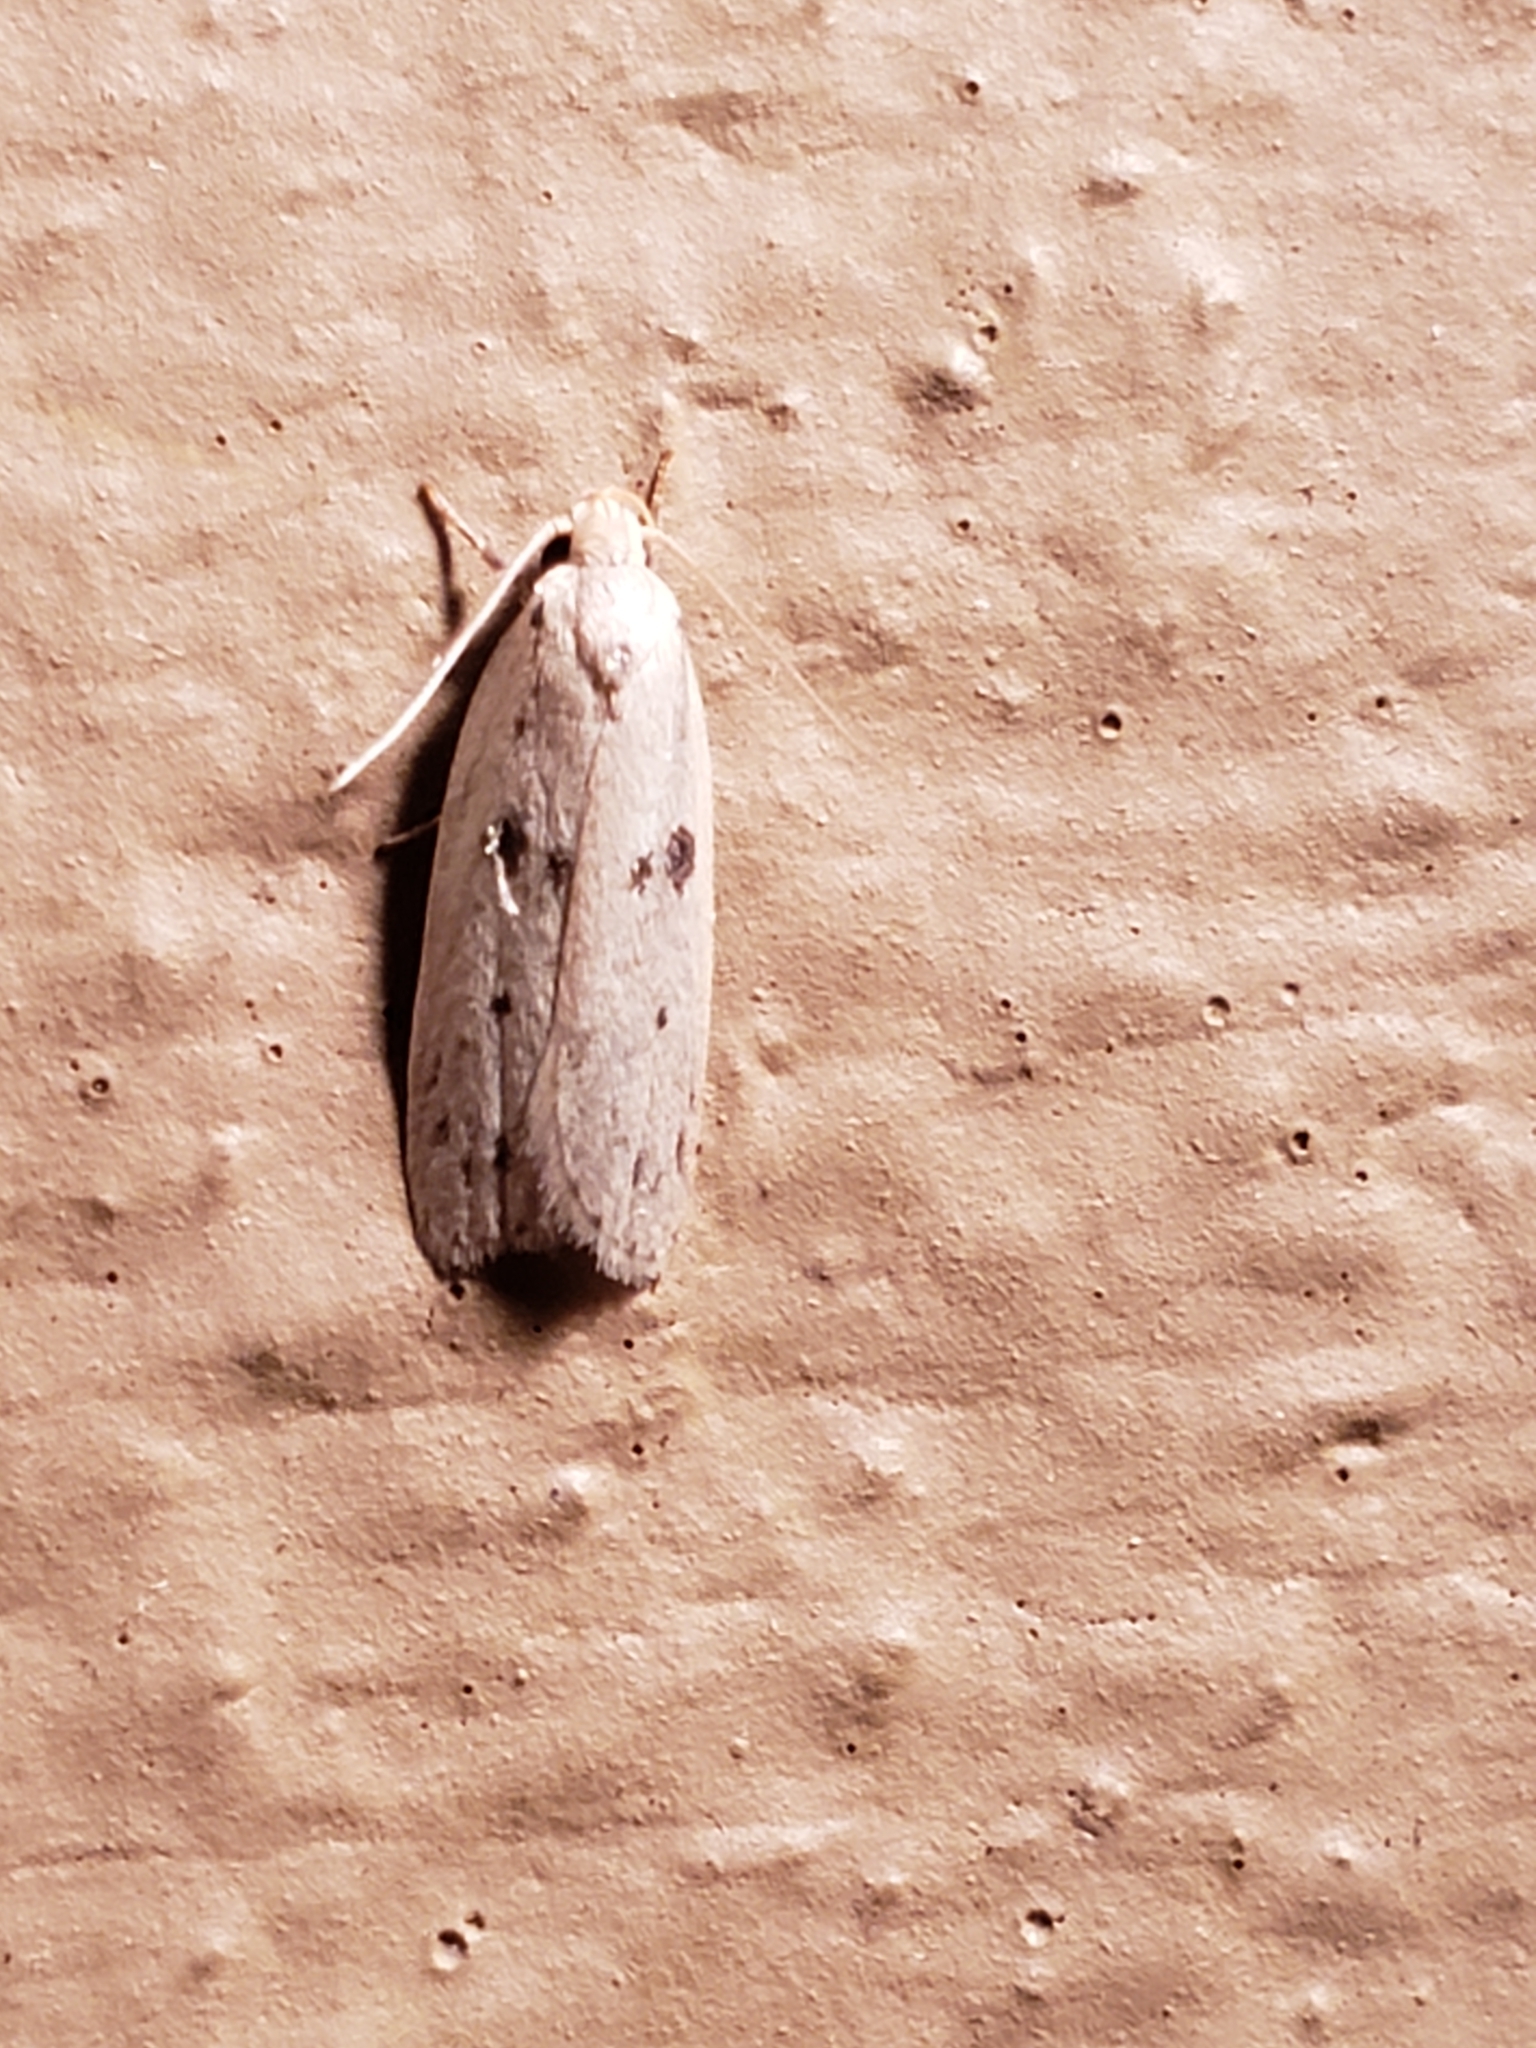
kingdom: Animalia
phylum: Arthropoda
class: Insecta
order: Lepidoptera
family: Peleopodidae
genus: Scythropiodes
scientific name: Scythropiodes issikii
